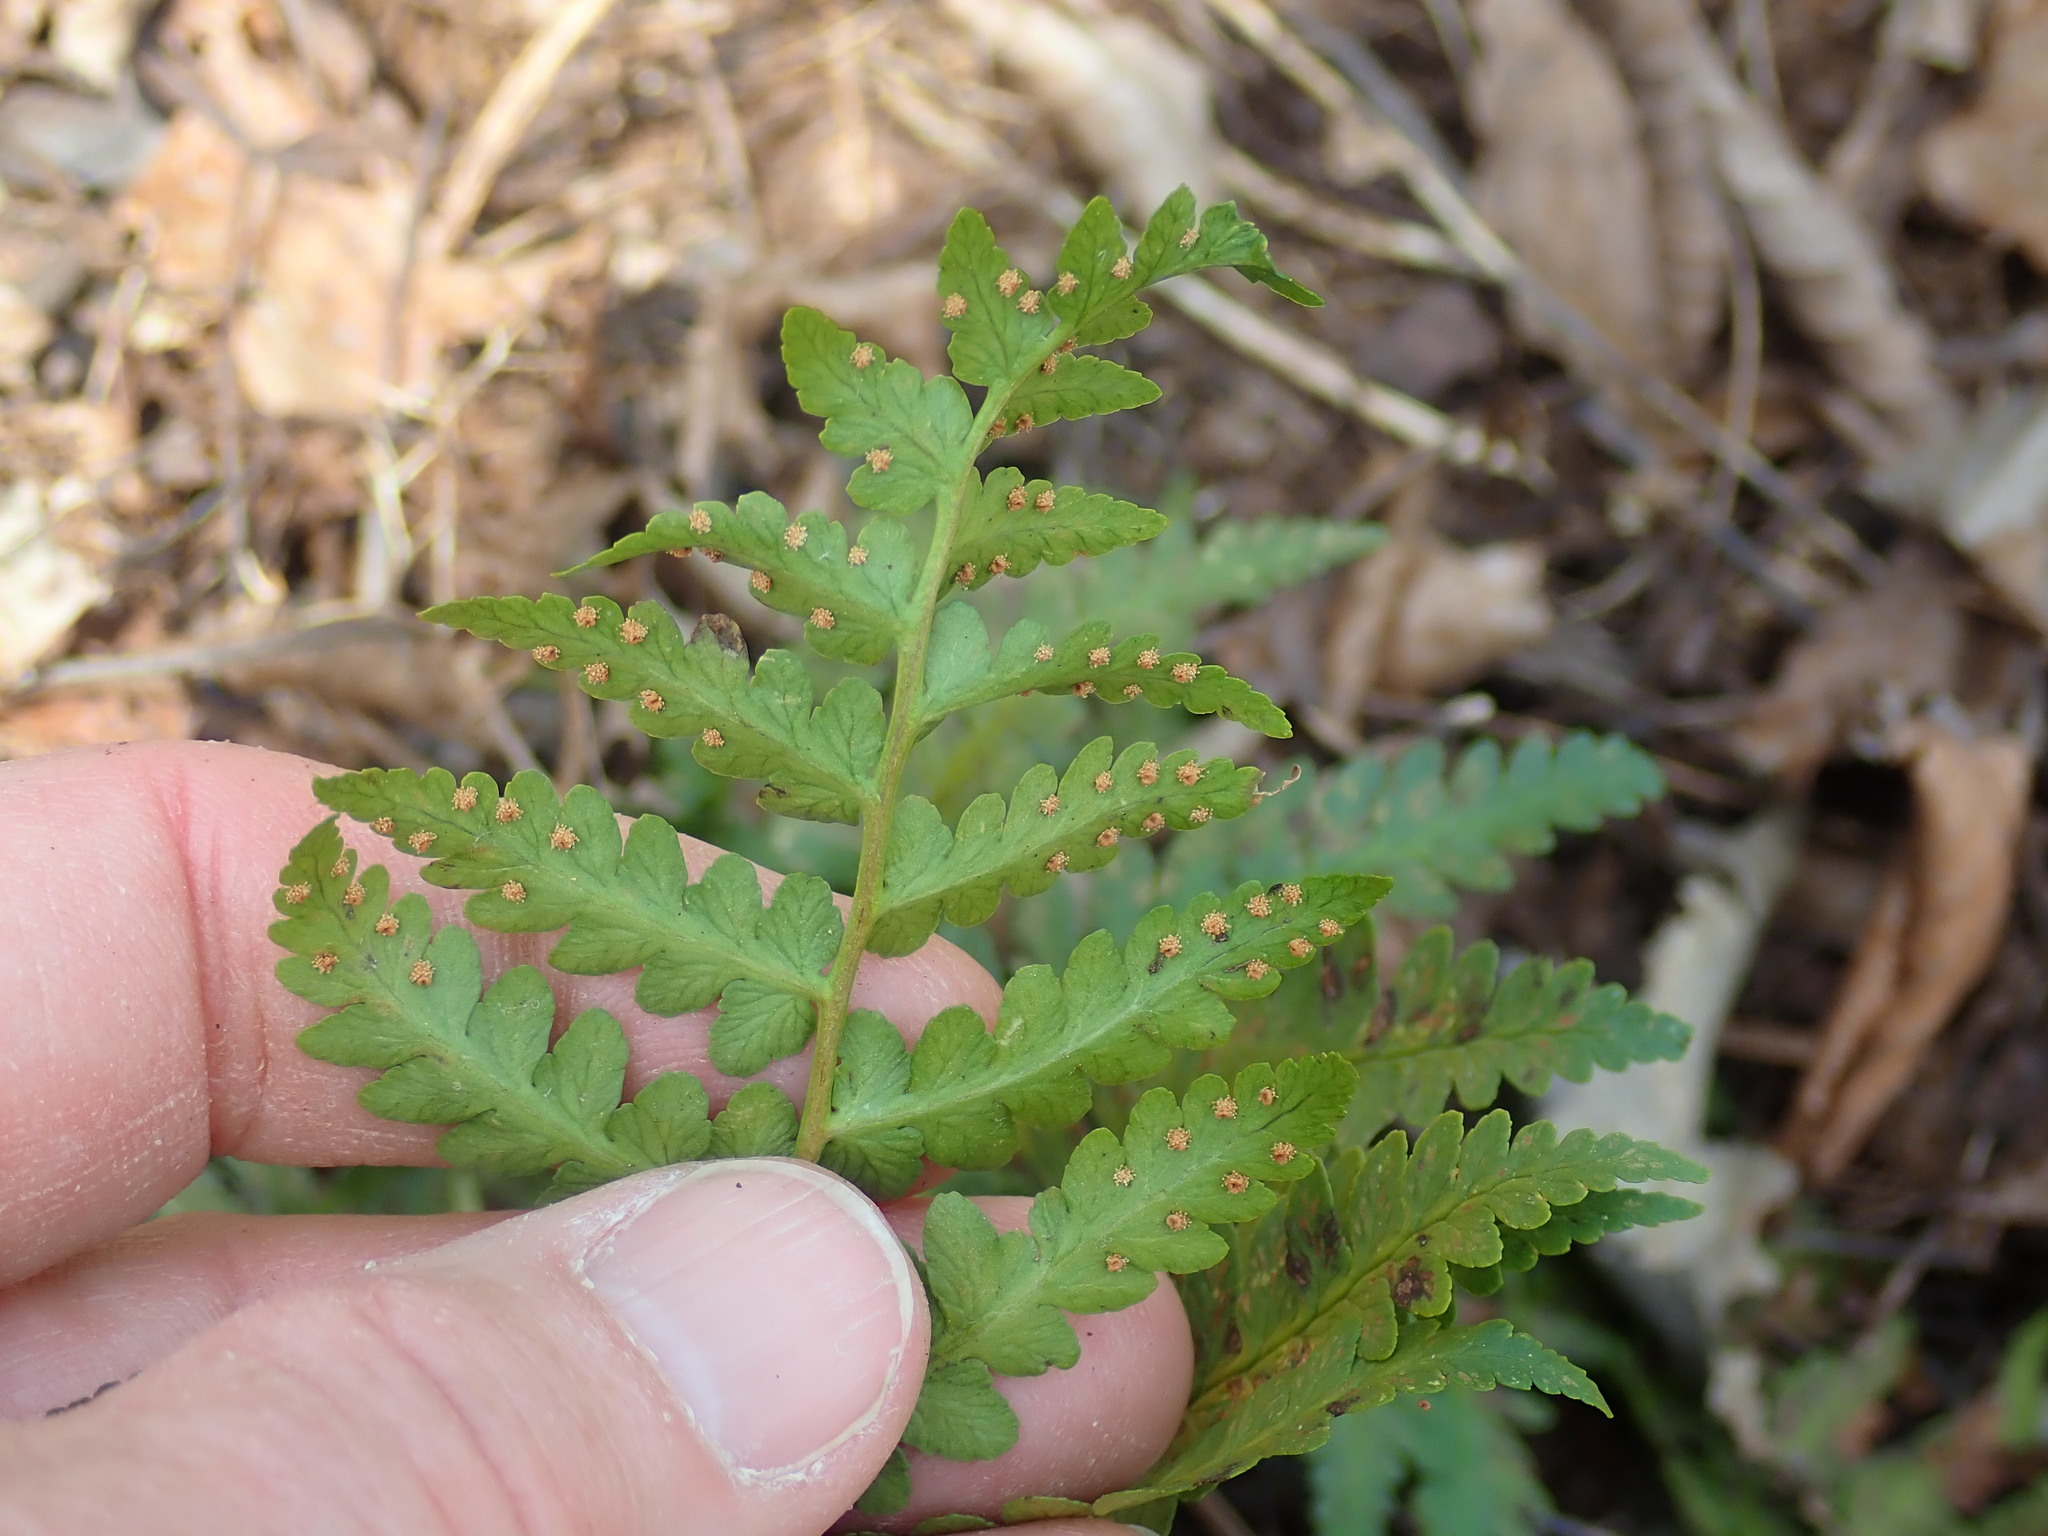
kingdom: Plantae
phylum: Tracheophyta
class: Polypodiopsida
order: Polypodiales
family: Dryopteridaceae
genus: Dryopteris
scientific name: Dryopteris marginalis
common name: Marginal wood fern
